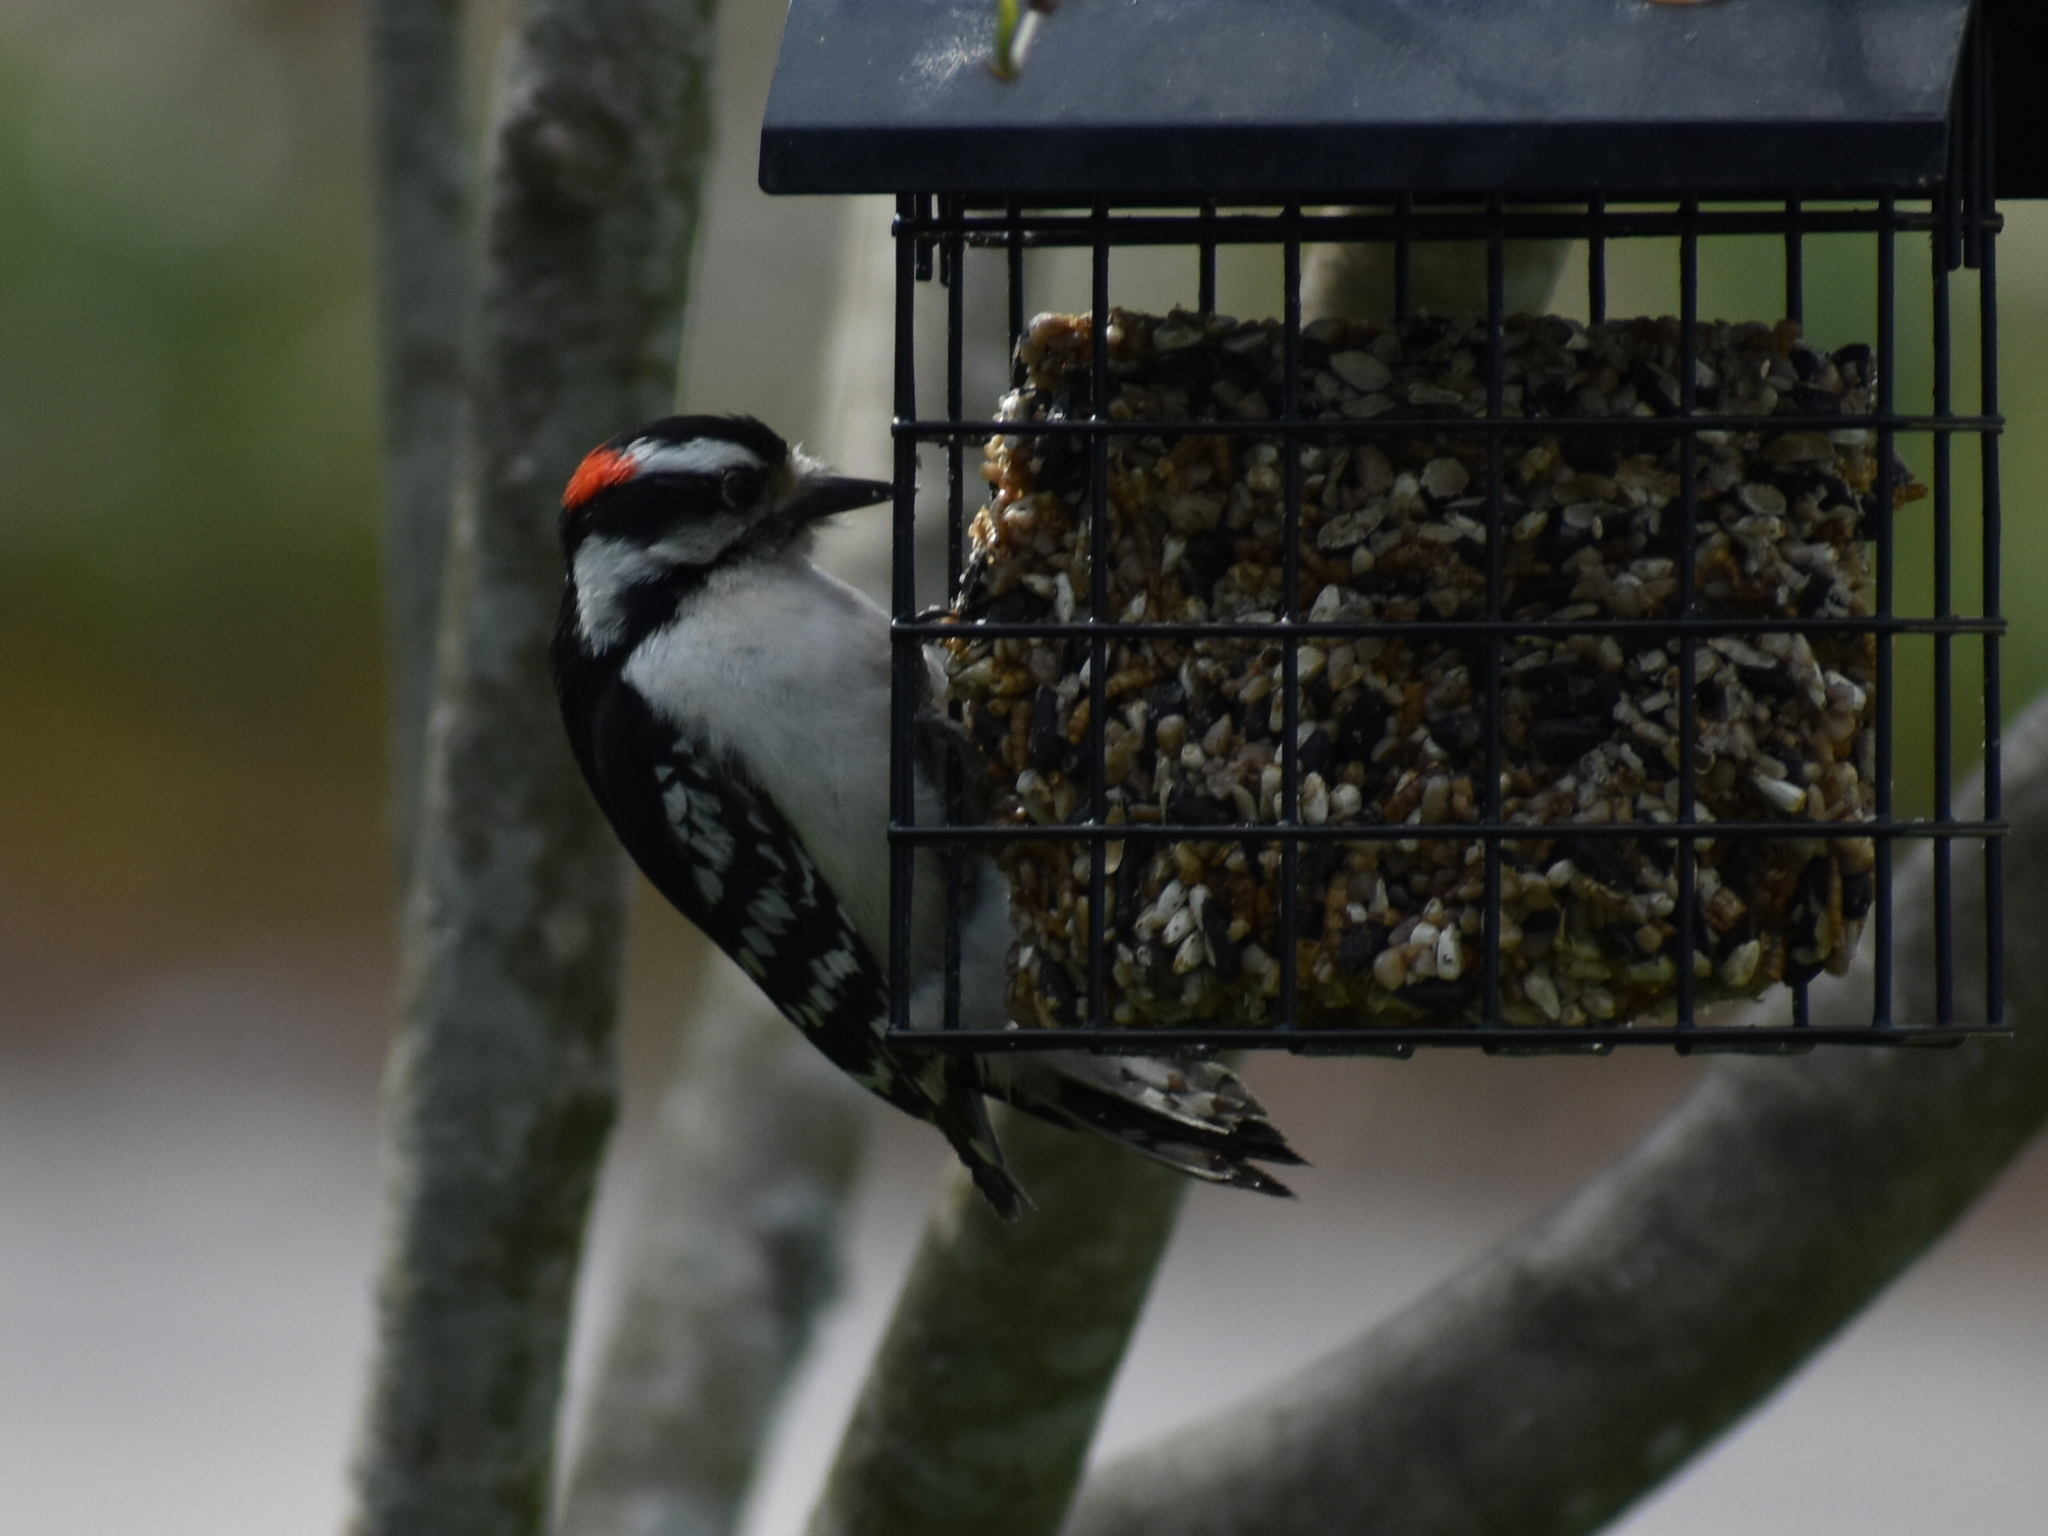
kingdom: Animalia
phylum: Chordata
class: Aves
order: Piciformes
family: Picidae
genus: Dryobates
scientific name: Dryobates pubescens
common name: Downy woodpecker
